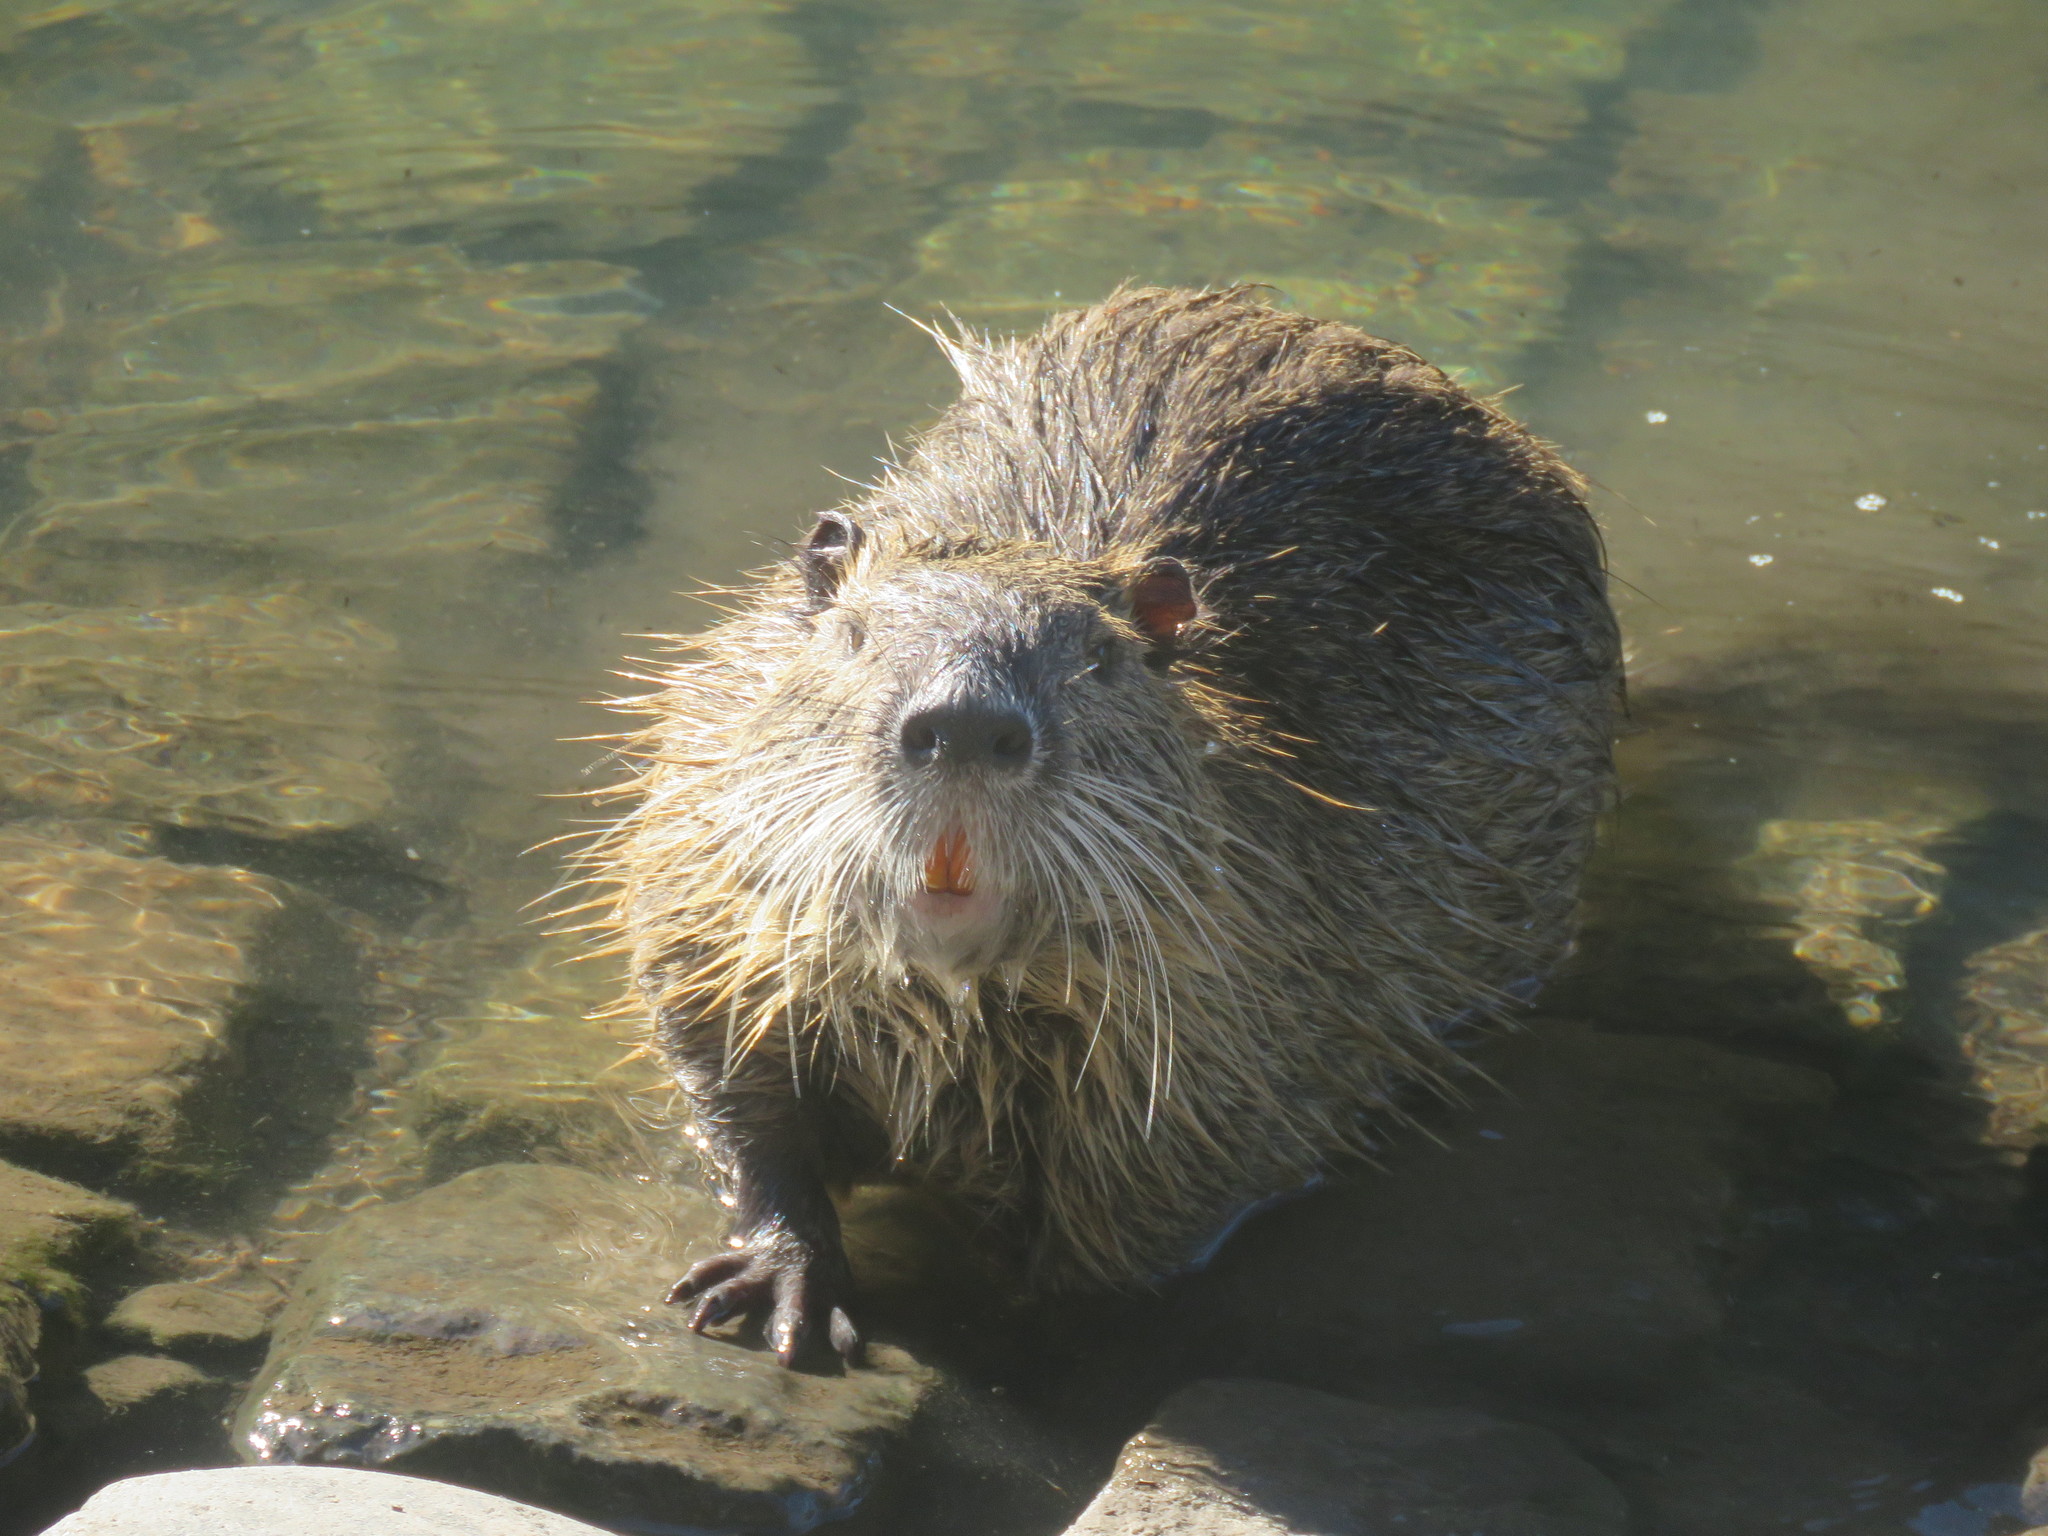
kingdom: Animalia
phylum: Chordata
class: Mammalia
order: Rodentia
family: Myocastoridae
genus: Myocastor
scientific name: Myocastor coypus
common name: Coypu
